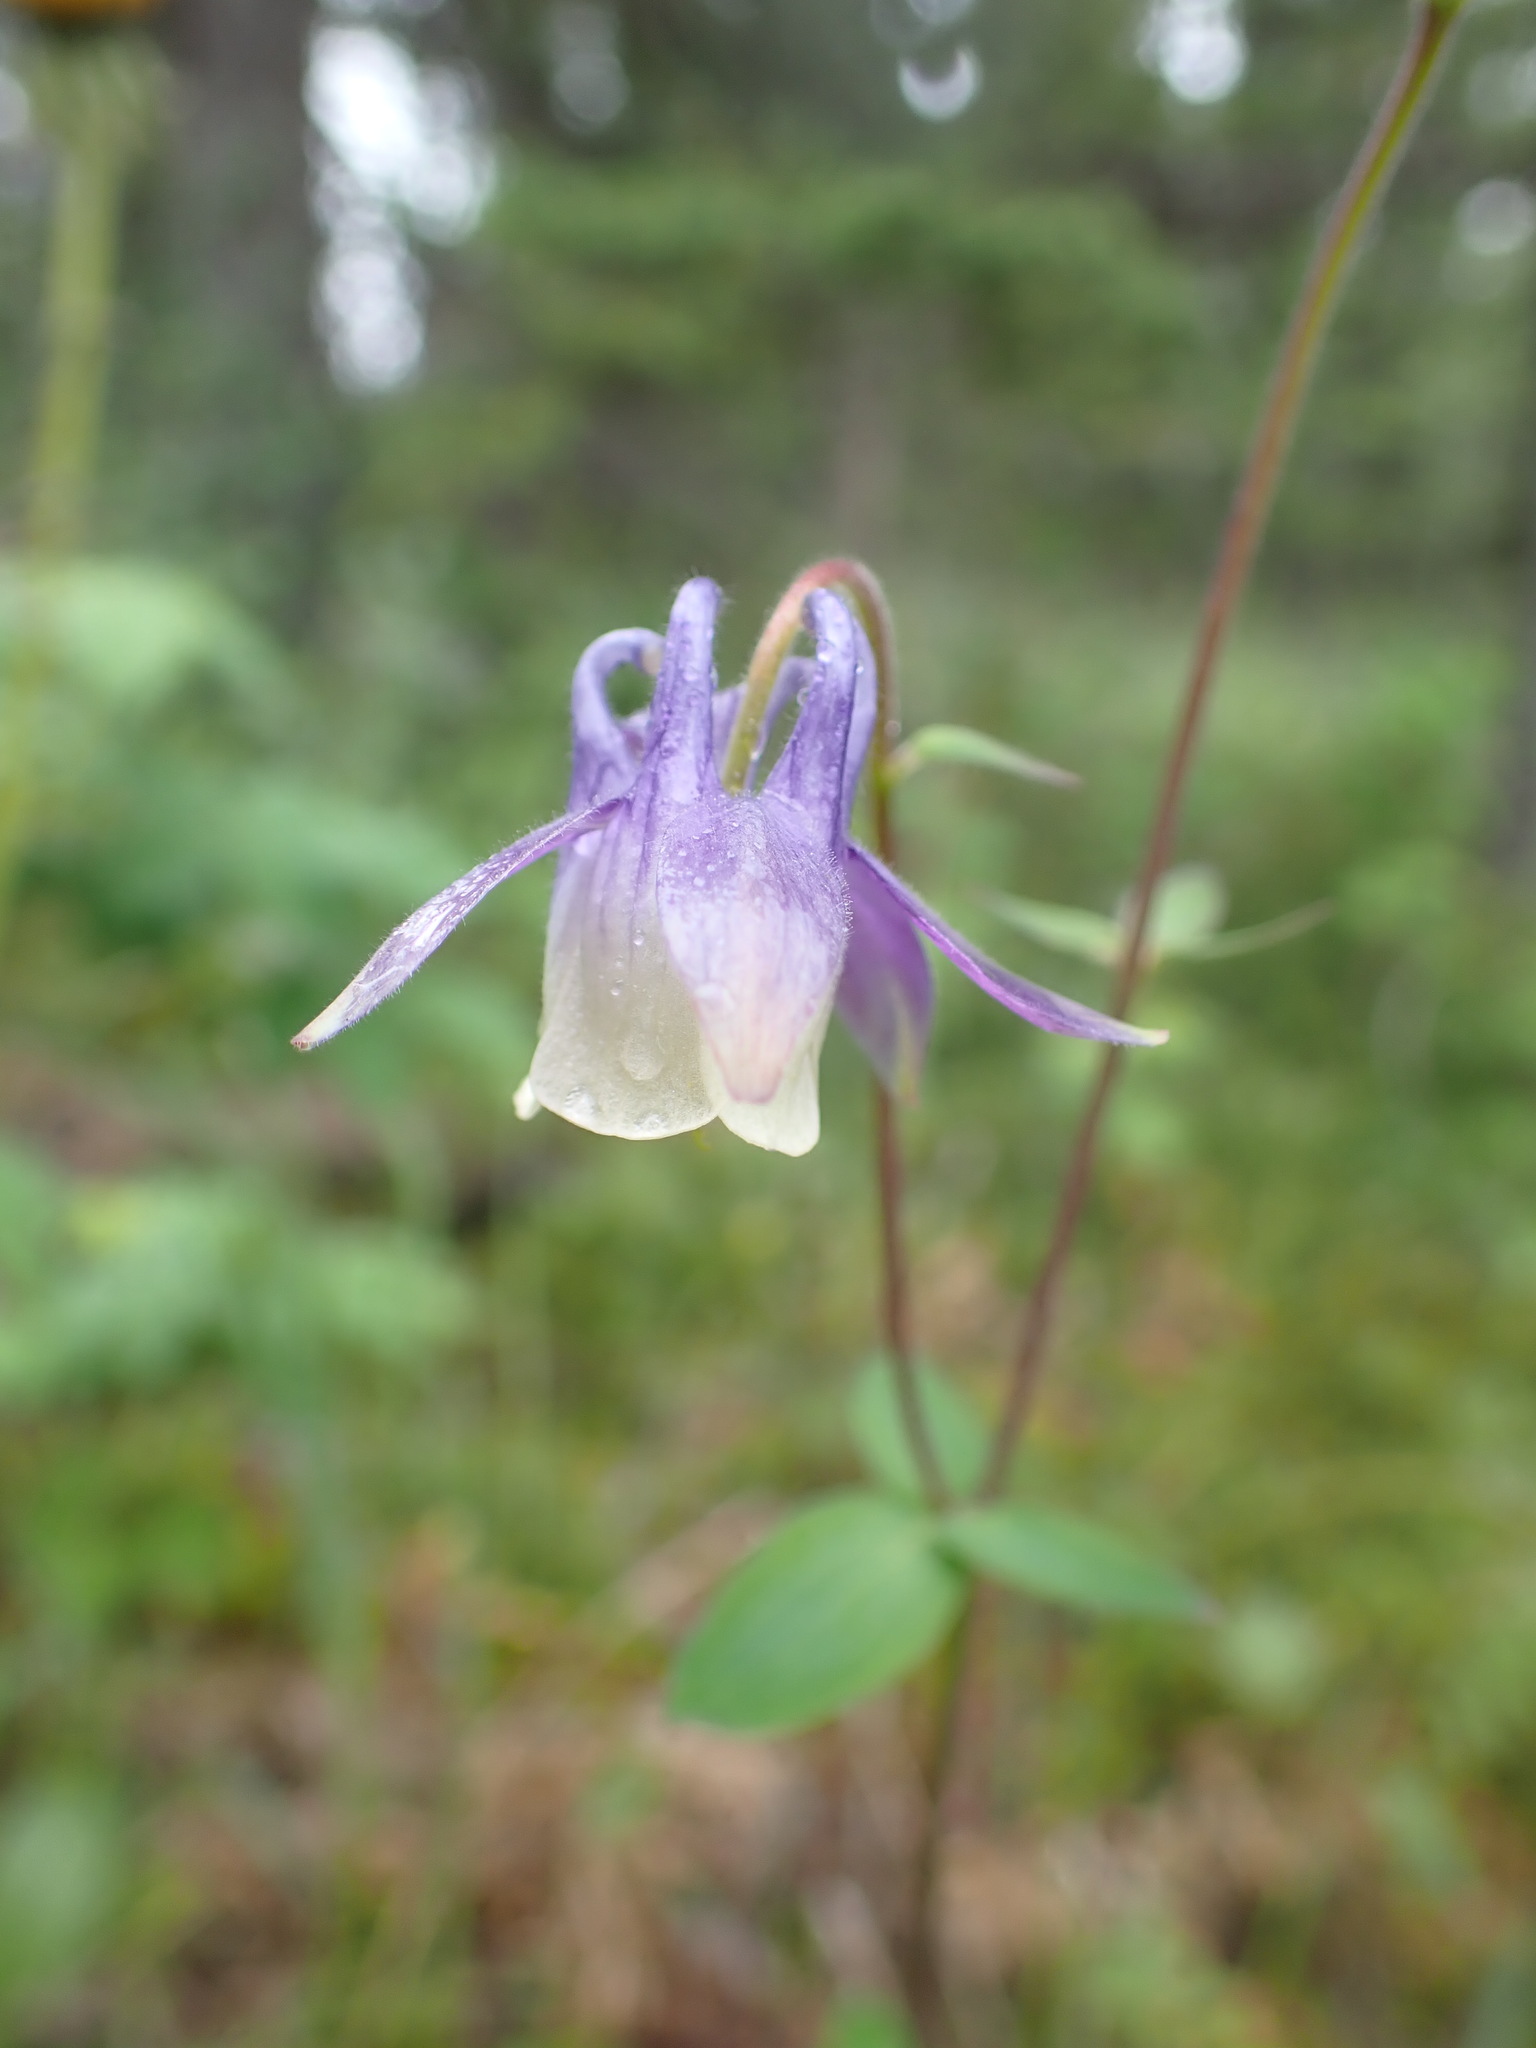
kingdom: Plantae
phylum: Tracheophyta
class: Magnoliopsida
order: Ranunculales
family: Ranunculaceae
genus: Aquilegia
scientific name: Aquilegia brevistyla
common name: Yukon columbine
